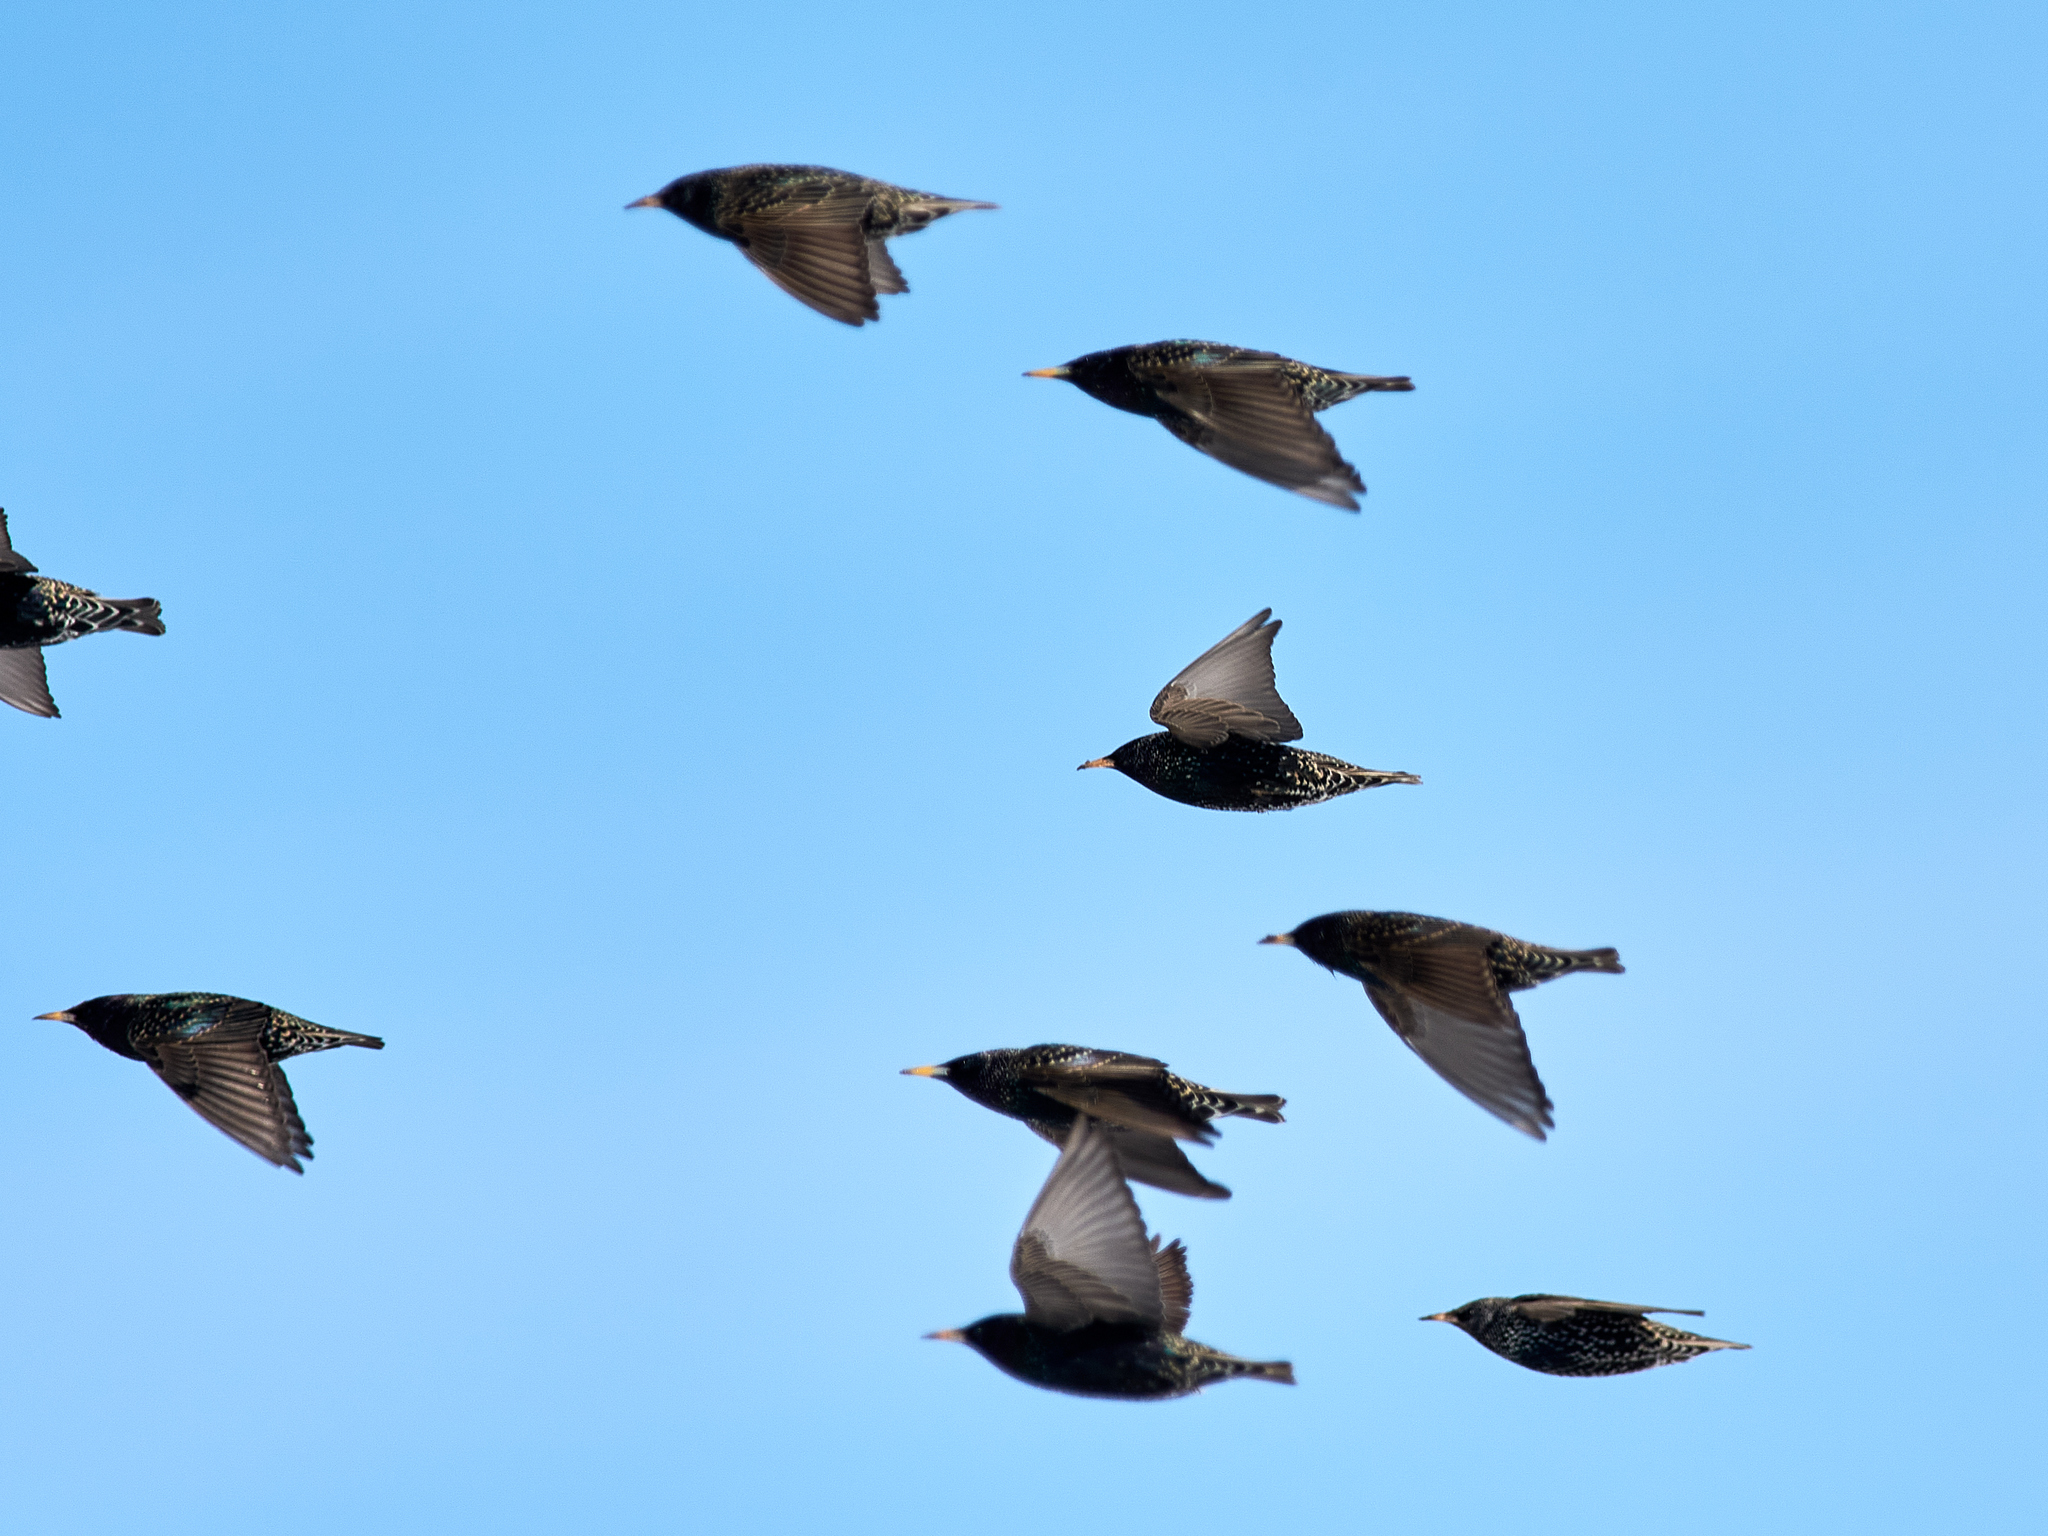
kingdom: Animalia
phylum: Chordata
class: Aves
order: Passeriformes
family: Sturnidae
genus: Sturnus
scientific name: Sturnus vulgaris
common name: Common starling
